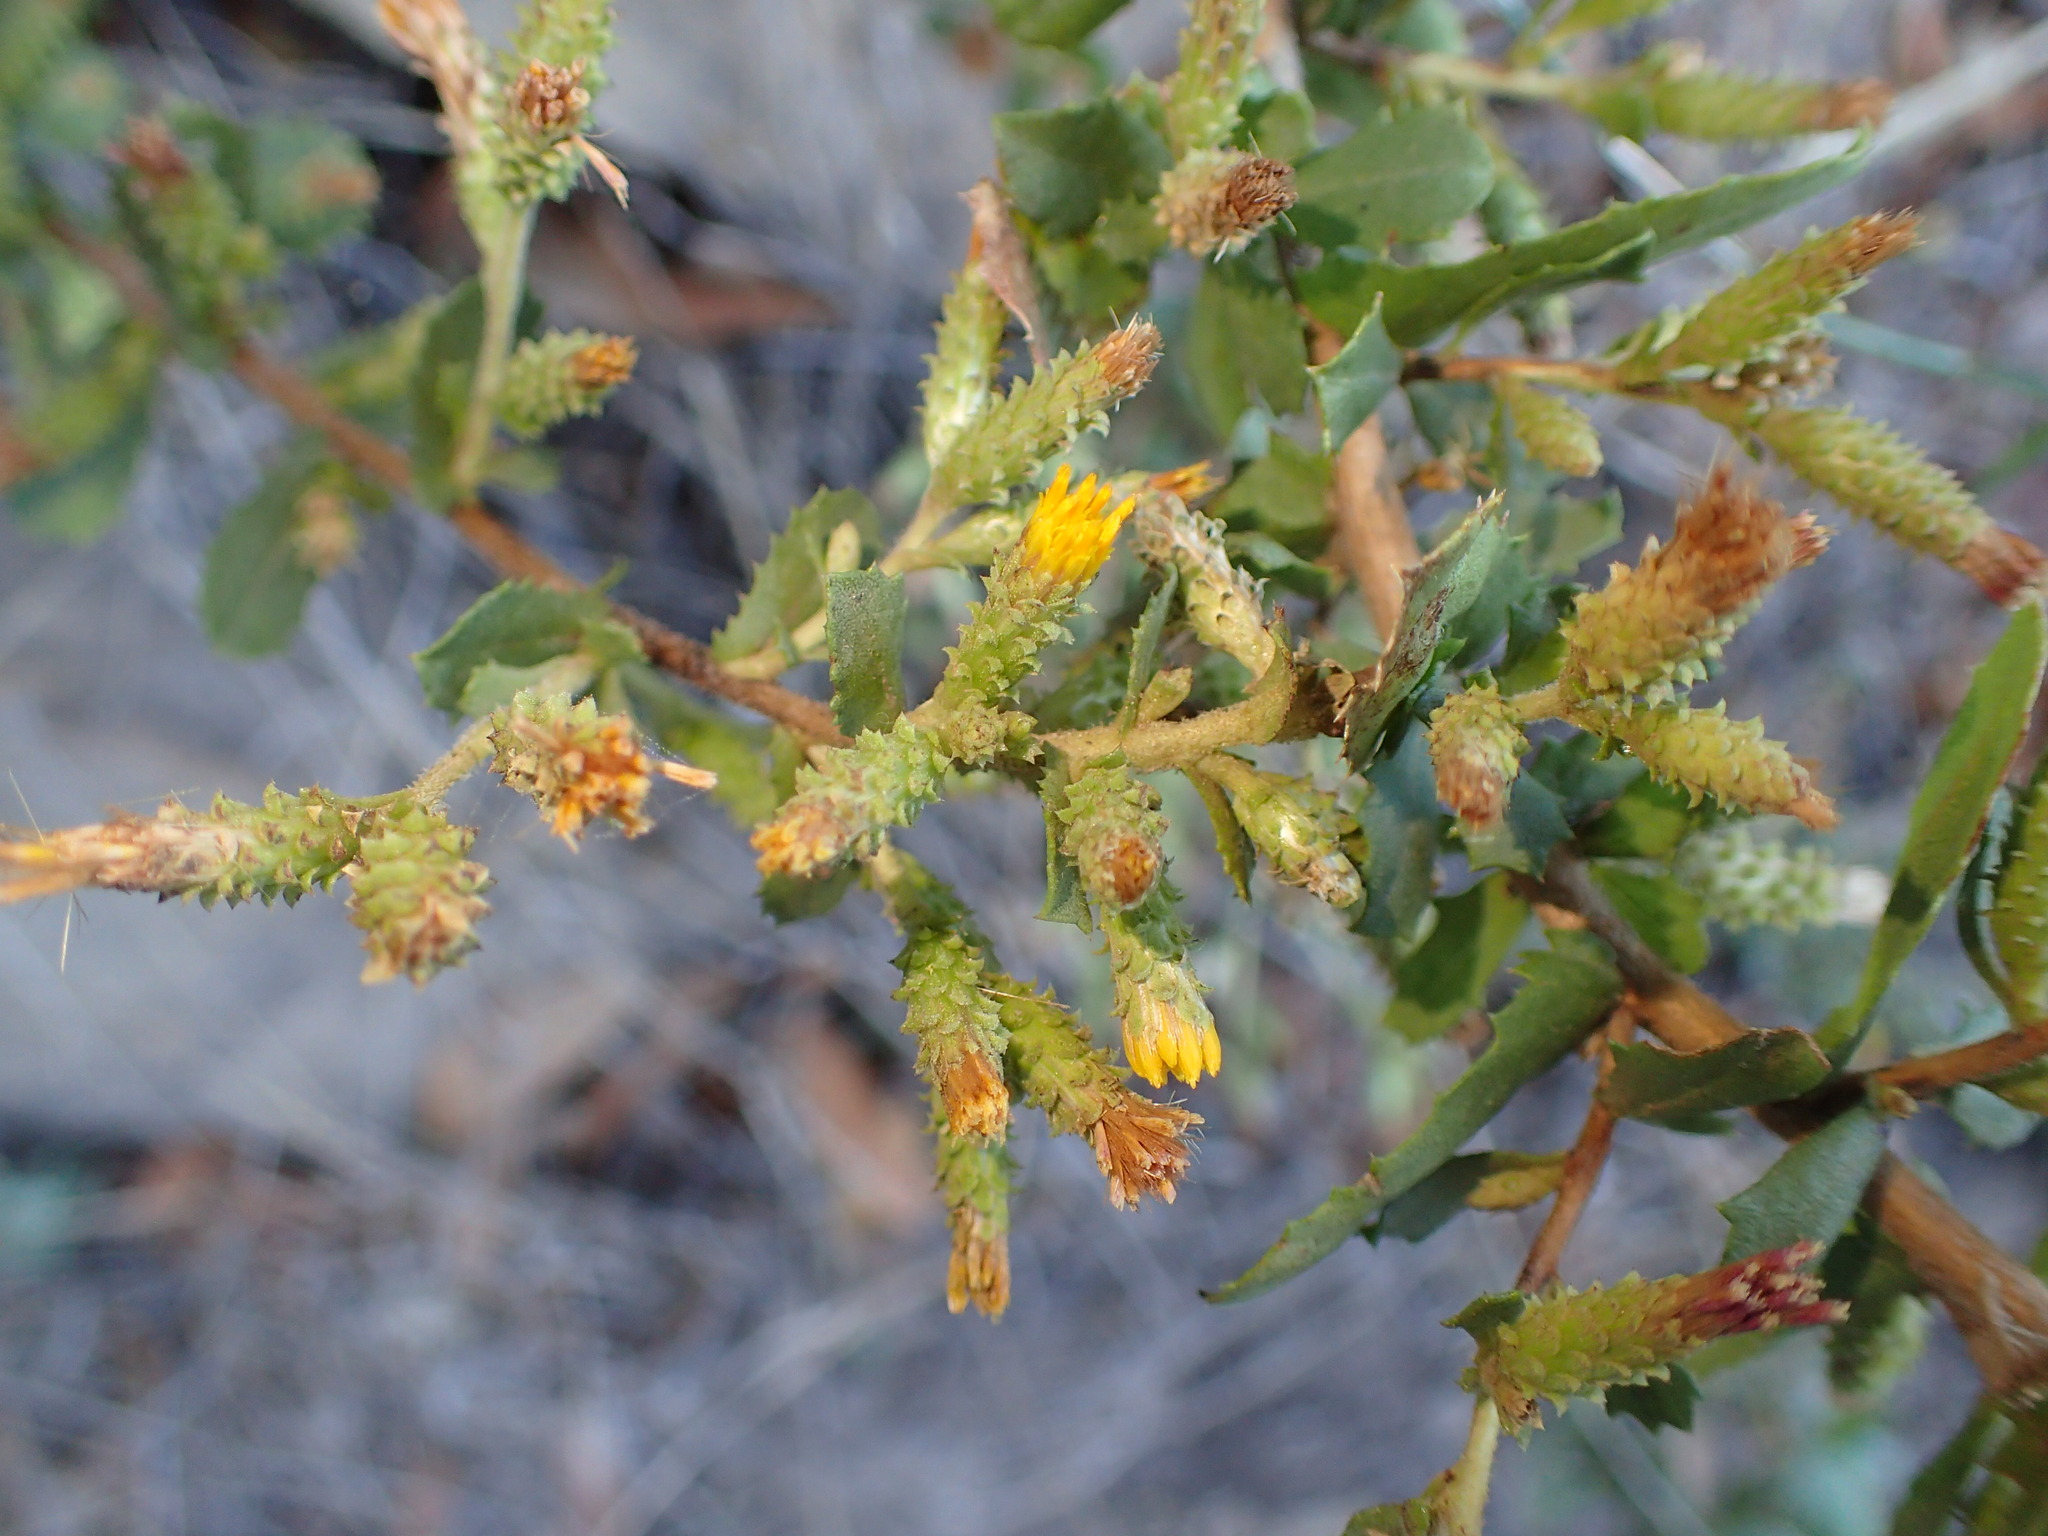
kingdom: Plantae
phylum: Tracheophyta
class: Magnoliopsida
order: Asterales
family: Asteraceae
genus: Hazardia
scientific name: Hazardia squarrosa
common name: Saw-tooth goldenbush
